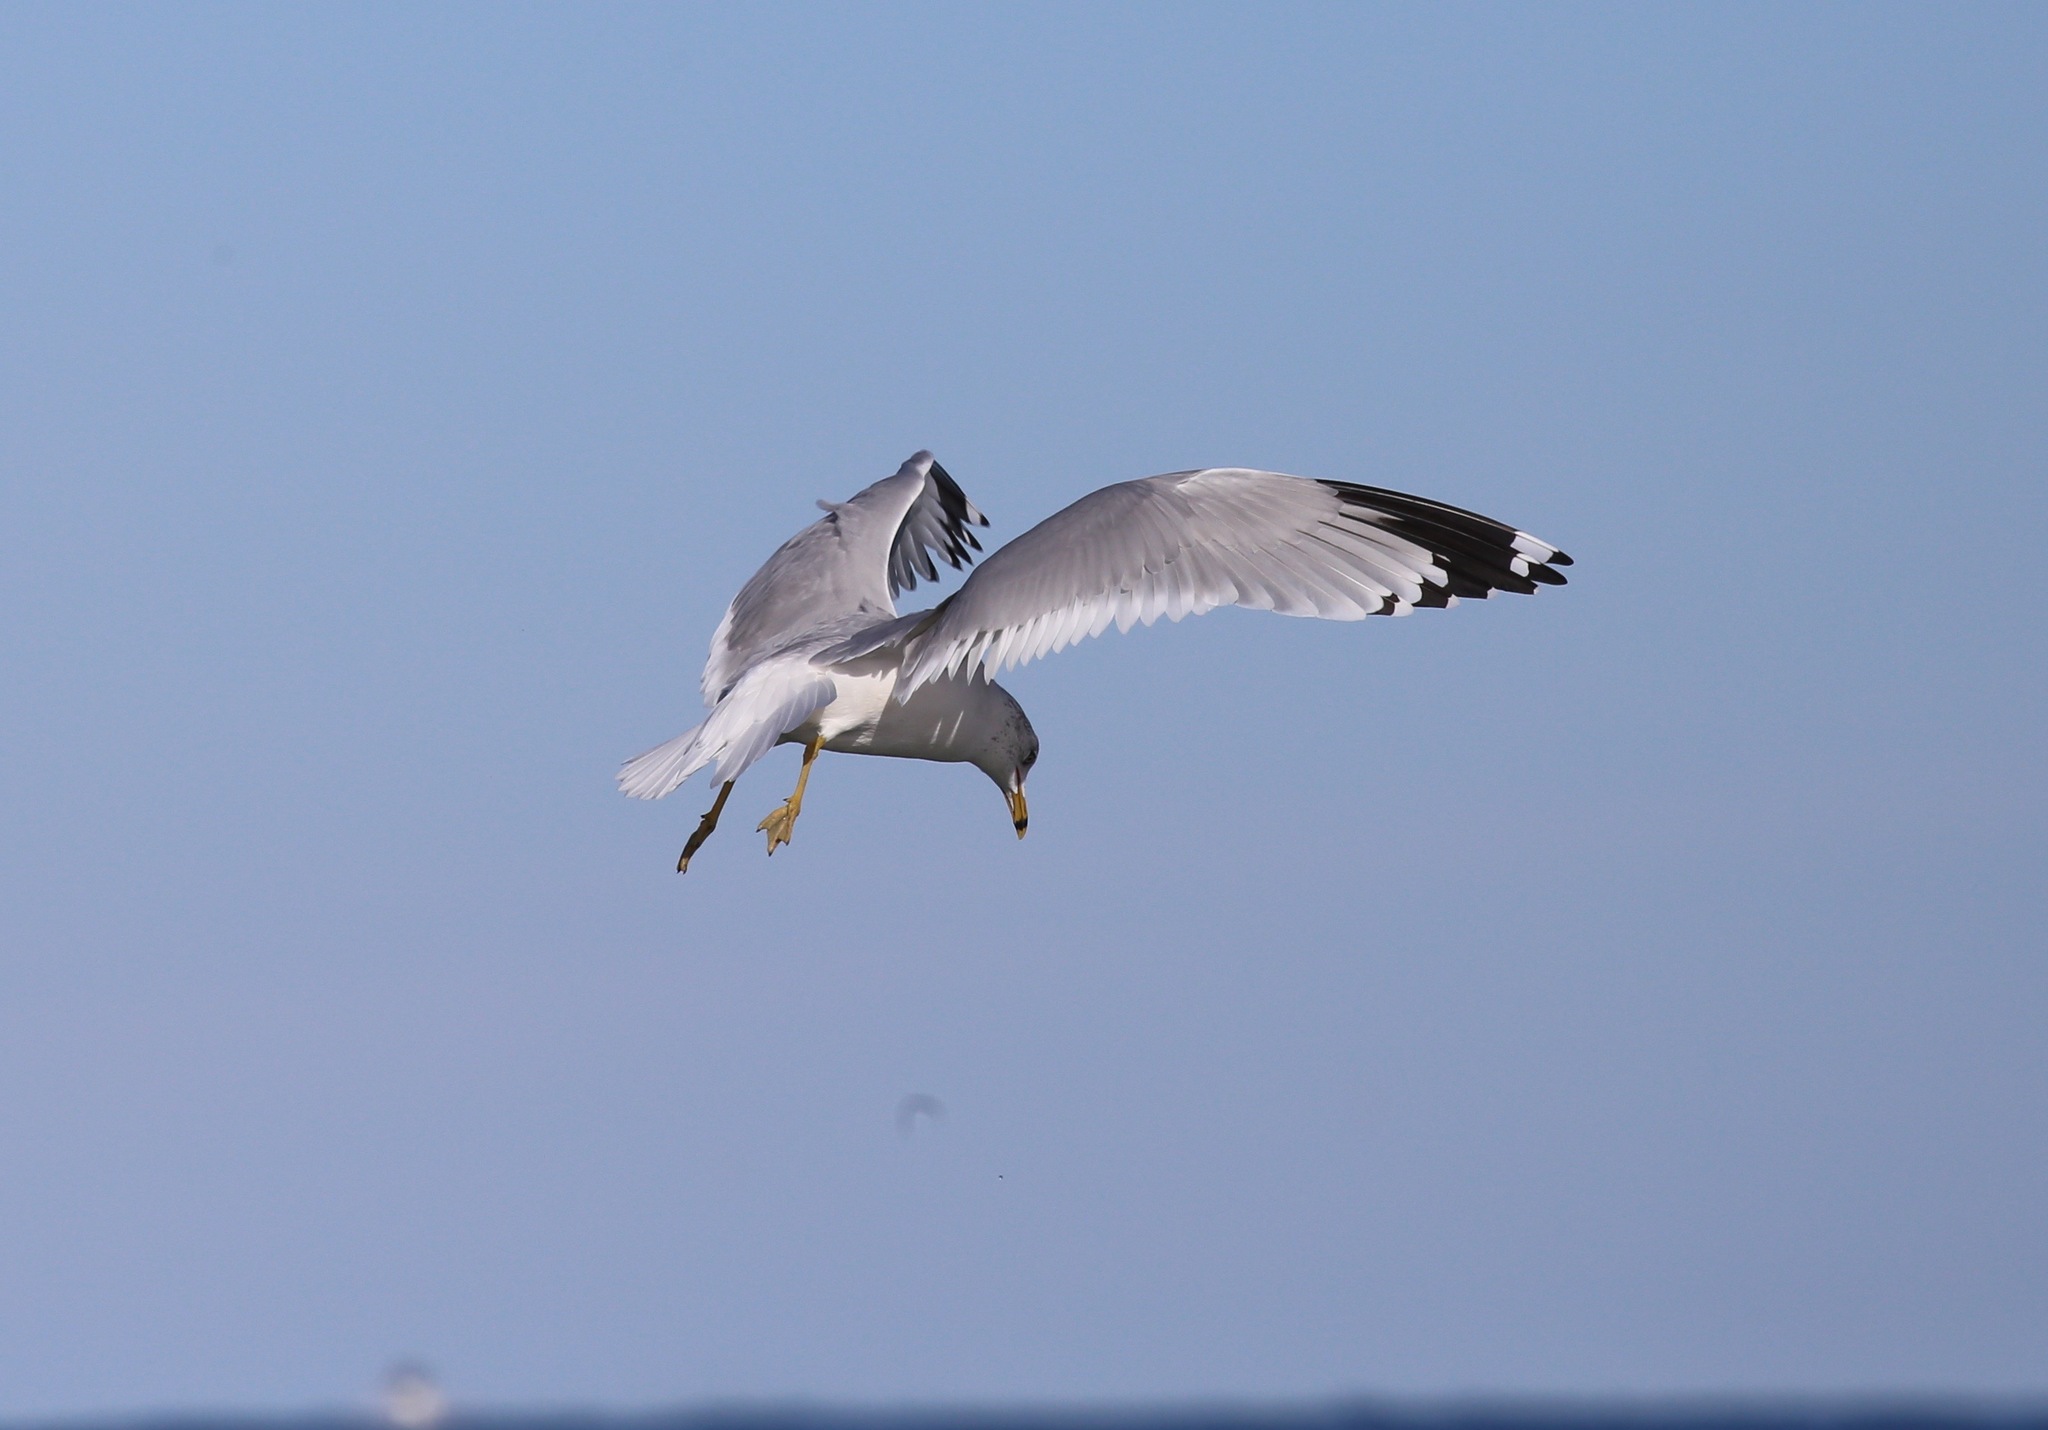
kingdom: Animalia
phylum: Chordata
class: Aves
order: Charadriiformes
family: Laridae
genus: Larus
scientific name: Larus delawarensis
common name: Ring-billed gull
